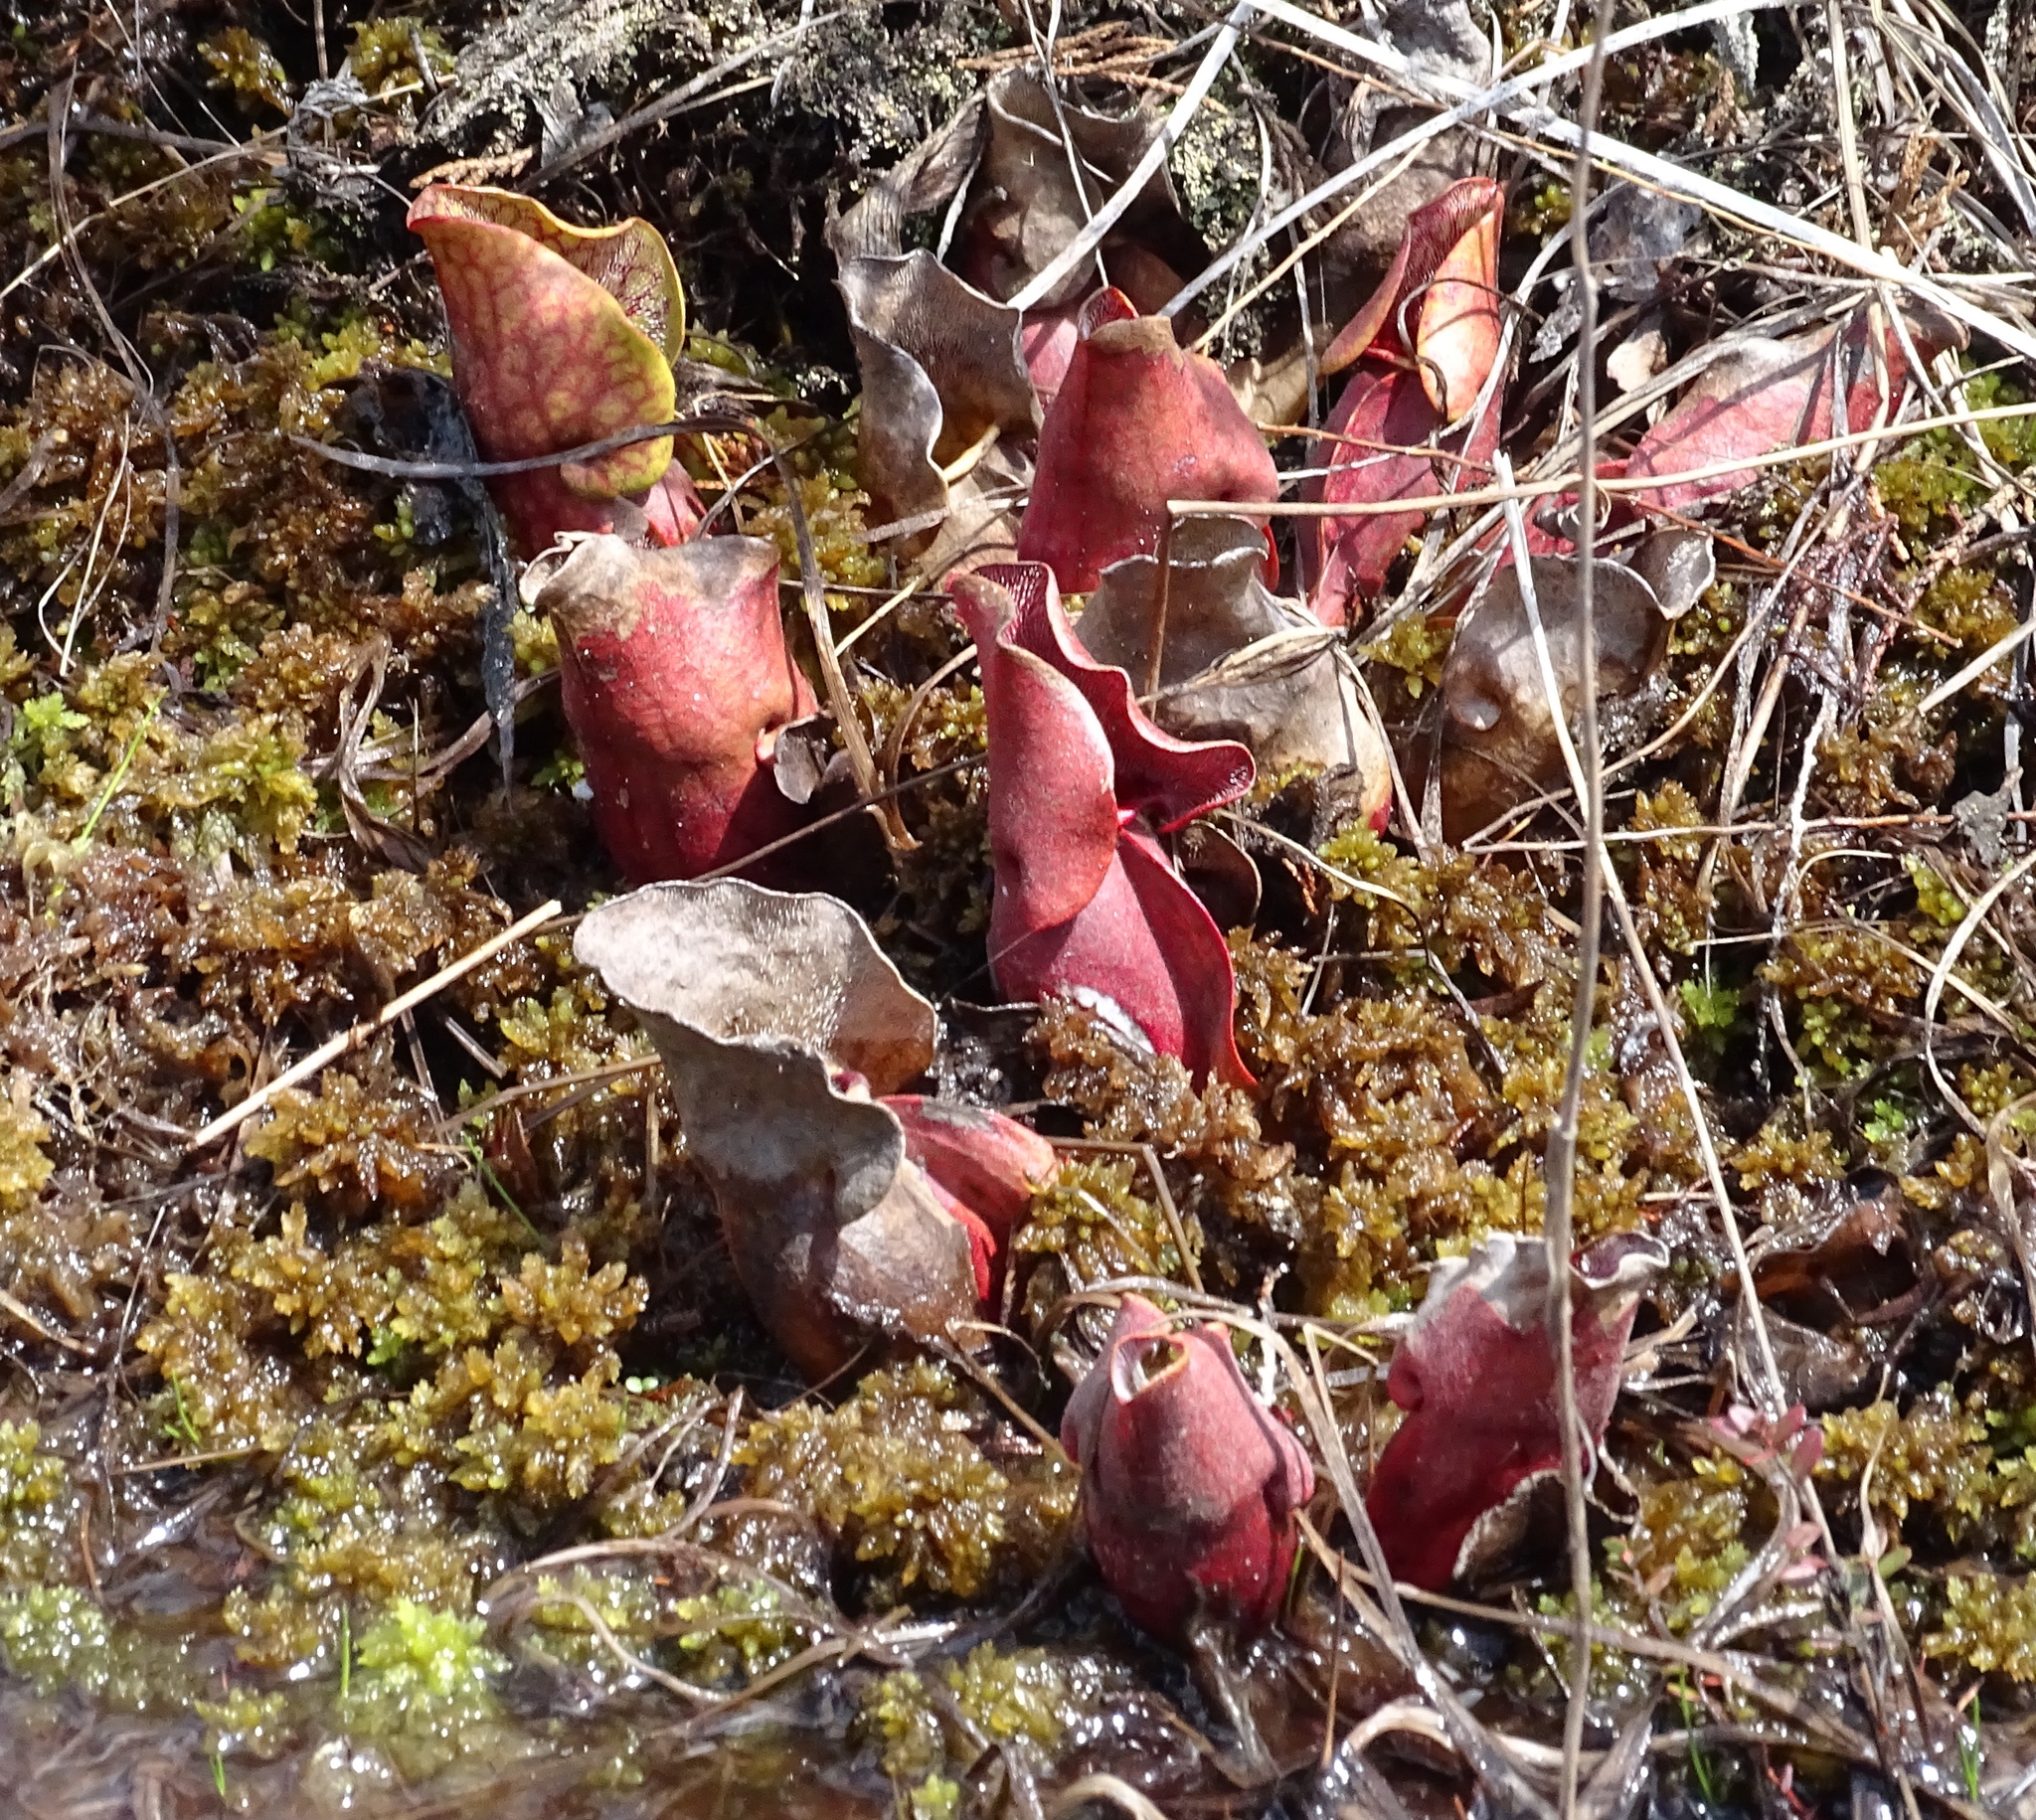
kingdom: Plantae
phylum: Tracheophyta
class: Magnoliopsida
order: Ericales
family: Sarraceniaceae
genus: Sarracenia
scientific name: Sarracenia purpurea
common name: Pitcherplant
